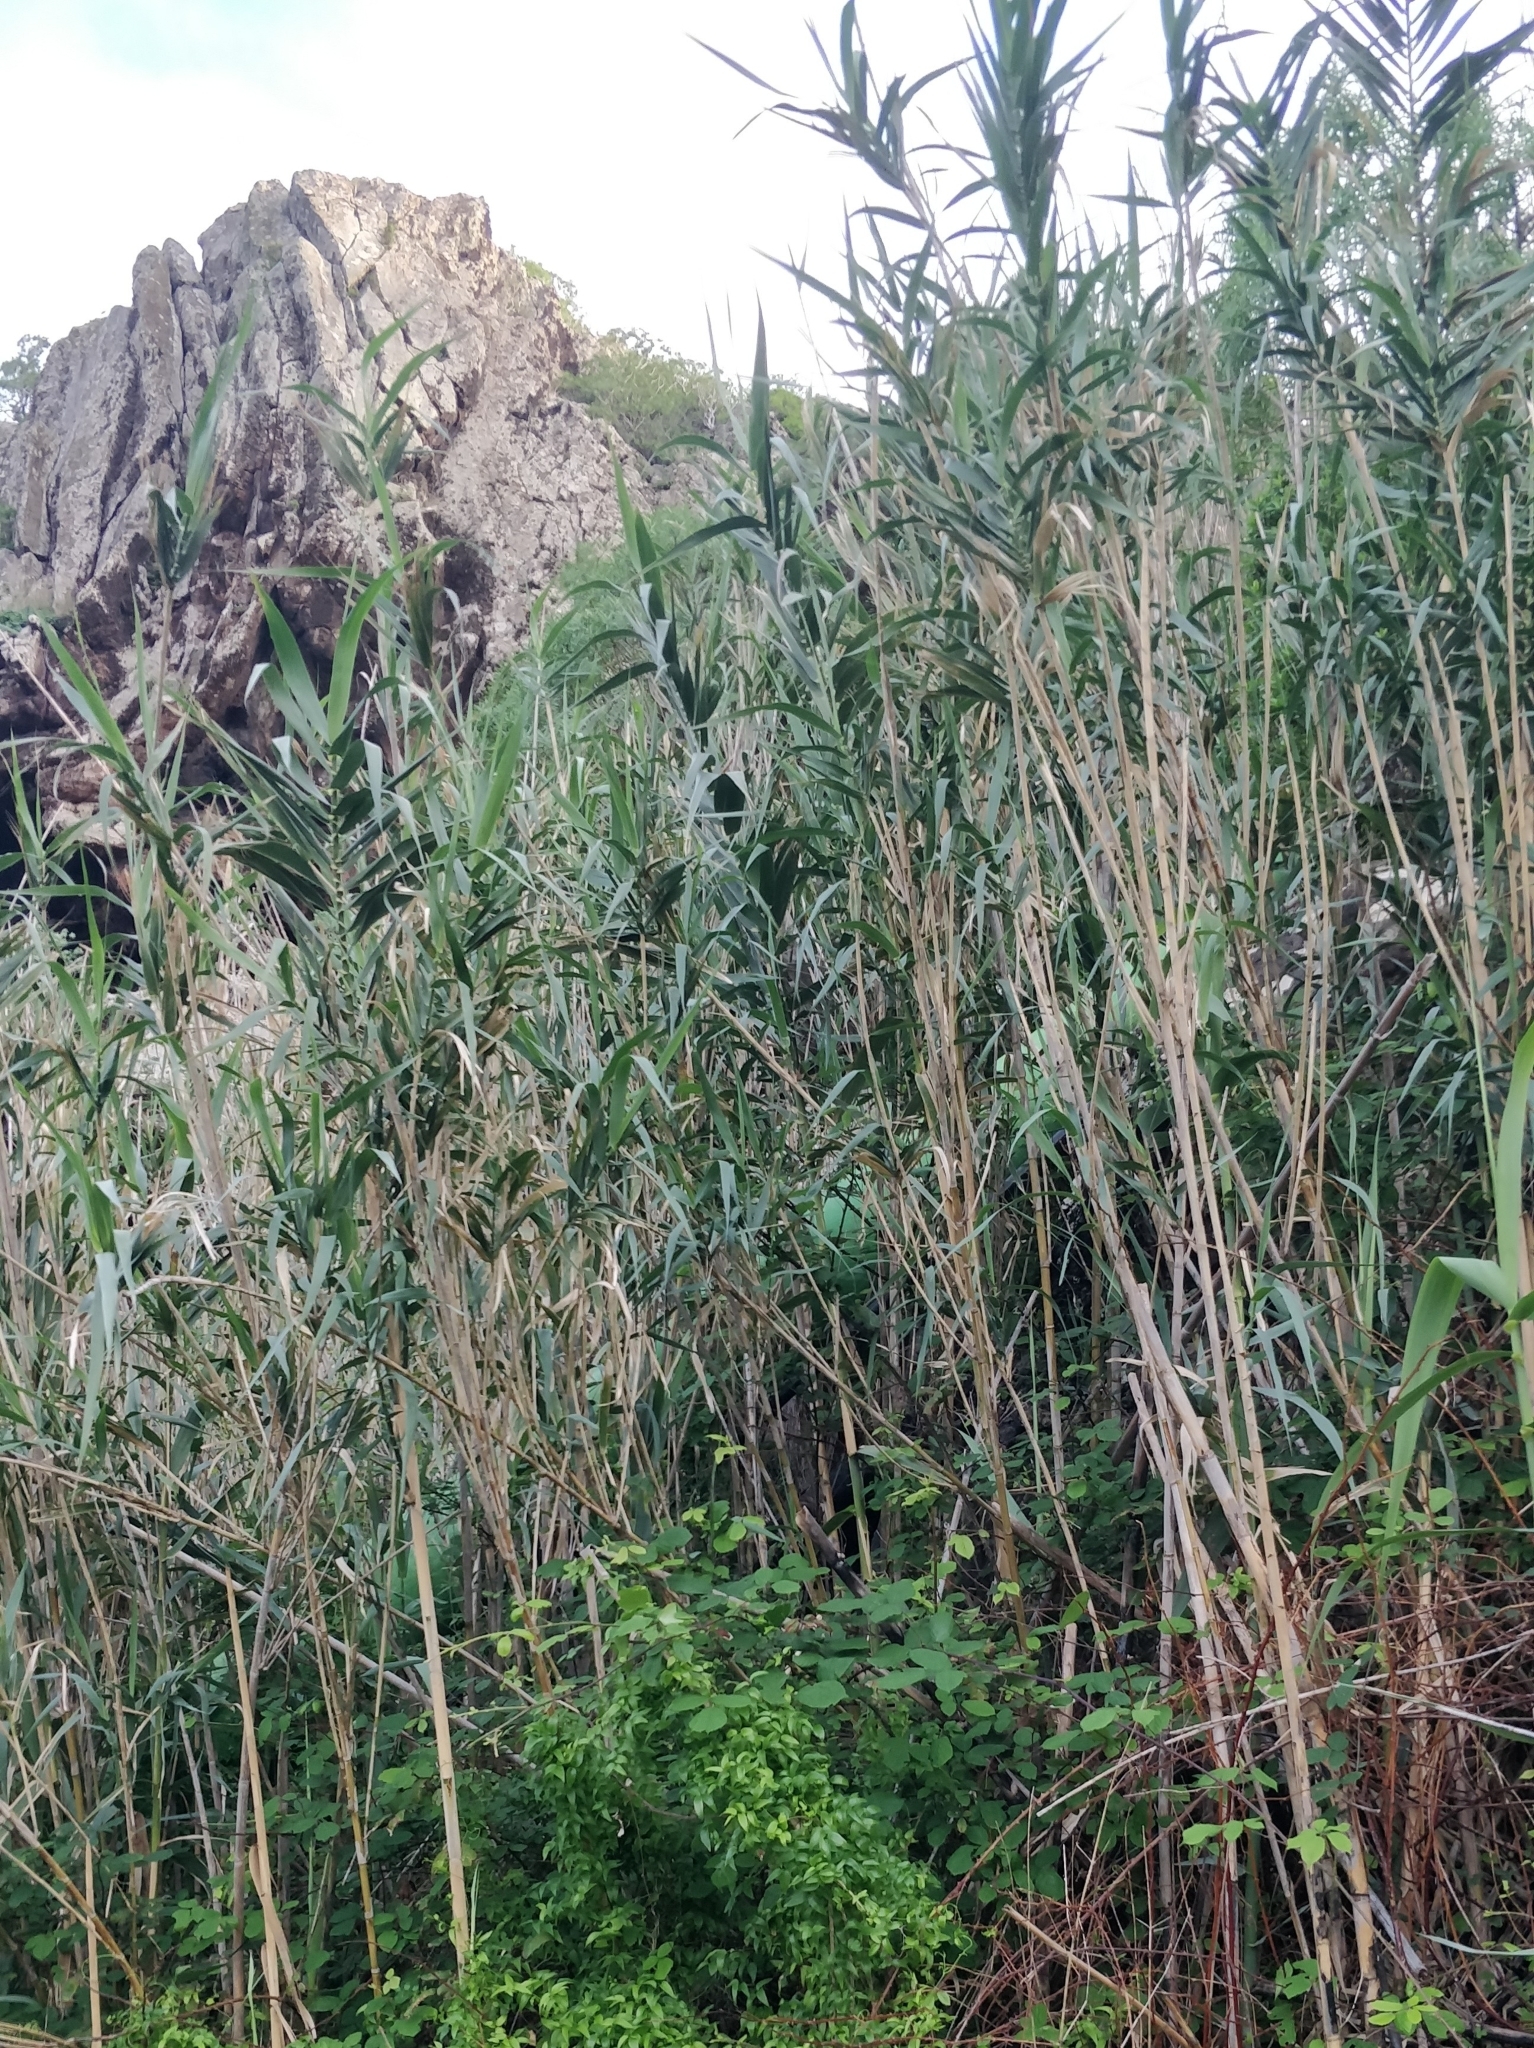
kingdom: Plantae
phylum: Tracheophyta
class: Liliopsida
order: Poales
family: Poaceae
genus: Arundo
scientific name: Arundo donax
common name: Giant reed
